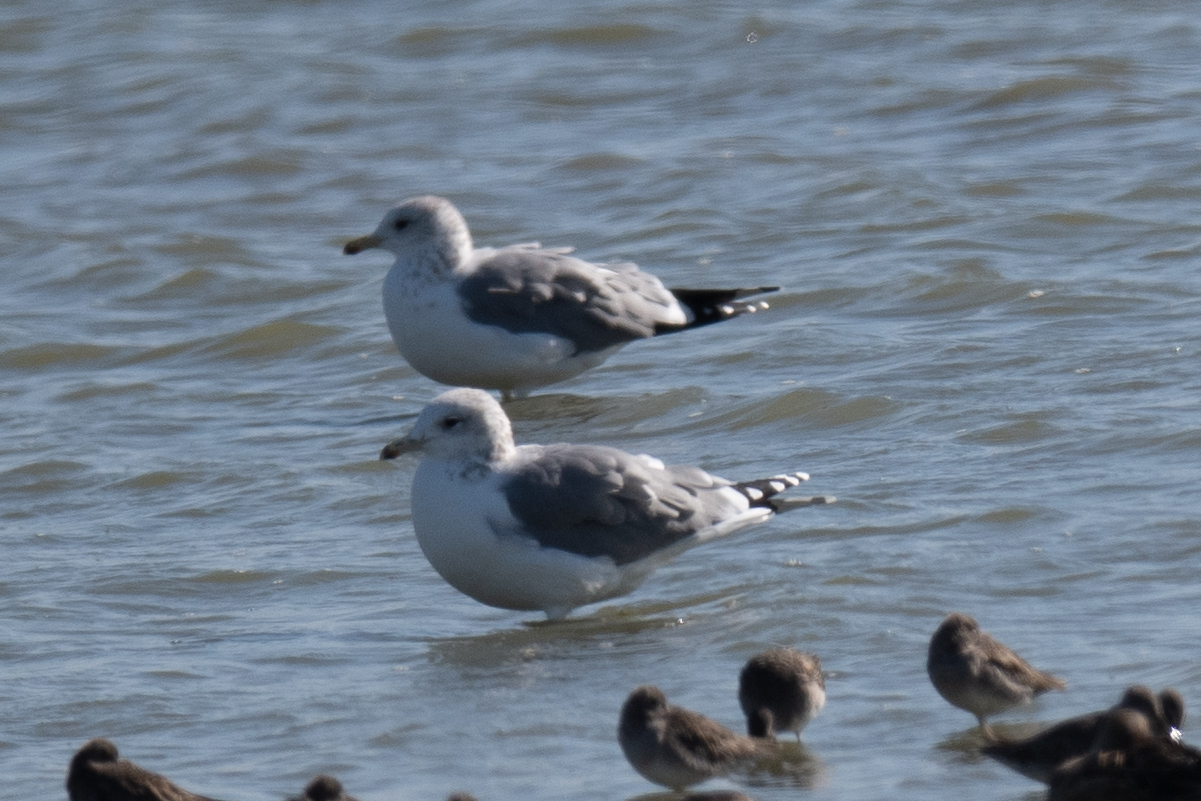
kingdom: Animalia
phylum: Chordata
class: Aves
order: Charadriiformes
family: Laridae
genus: Larus
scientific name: Larus californicus
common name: California gull
